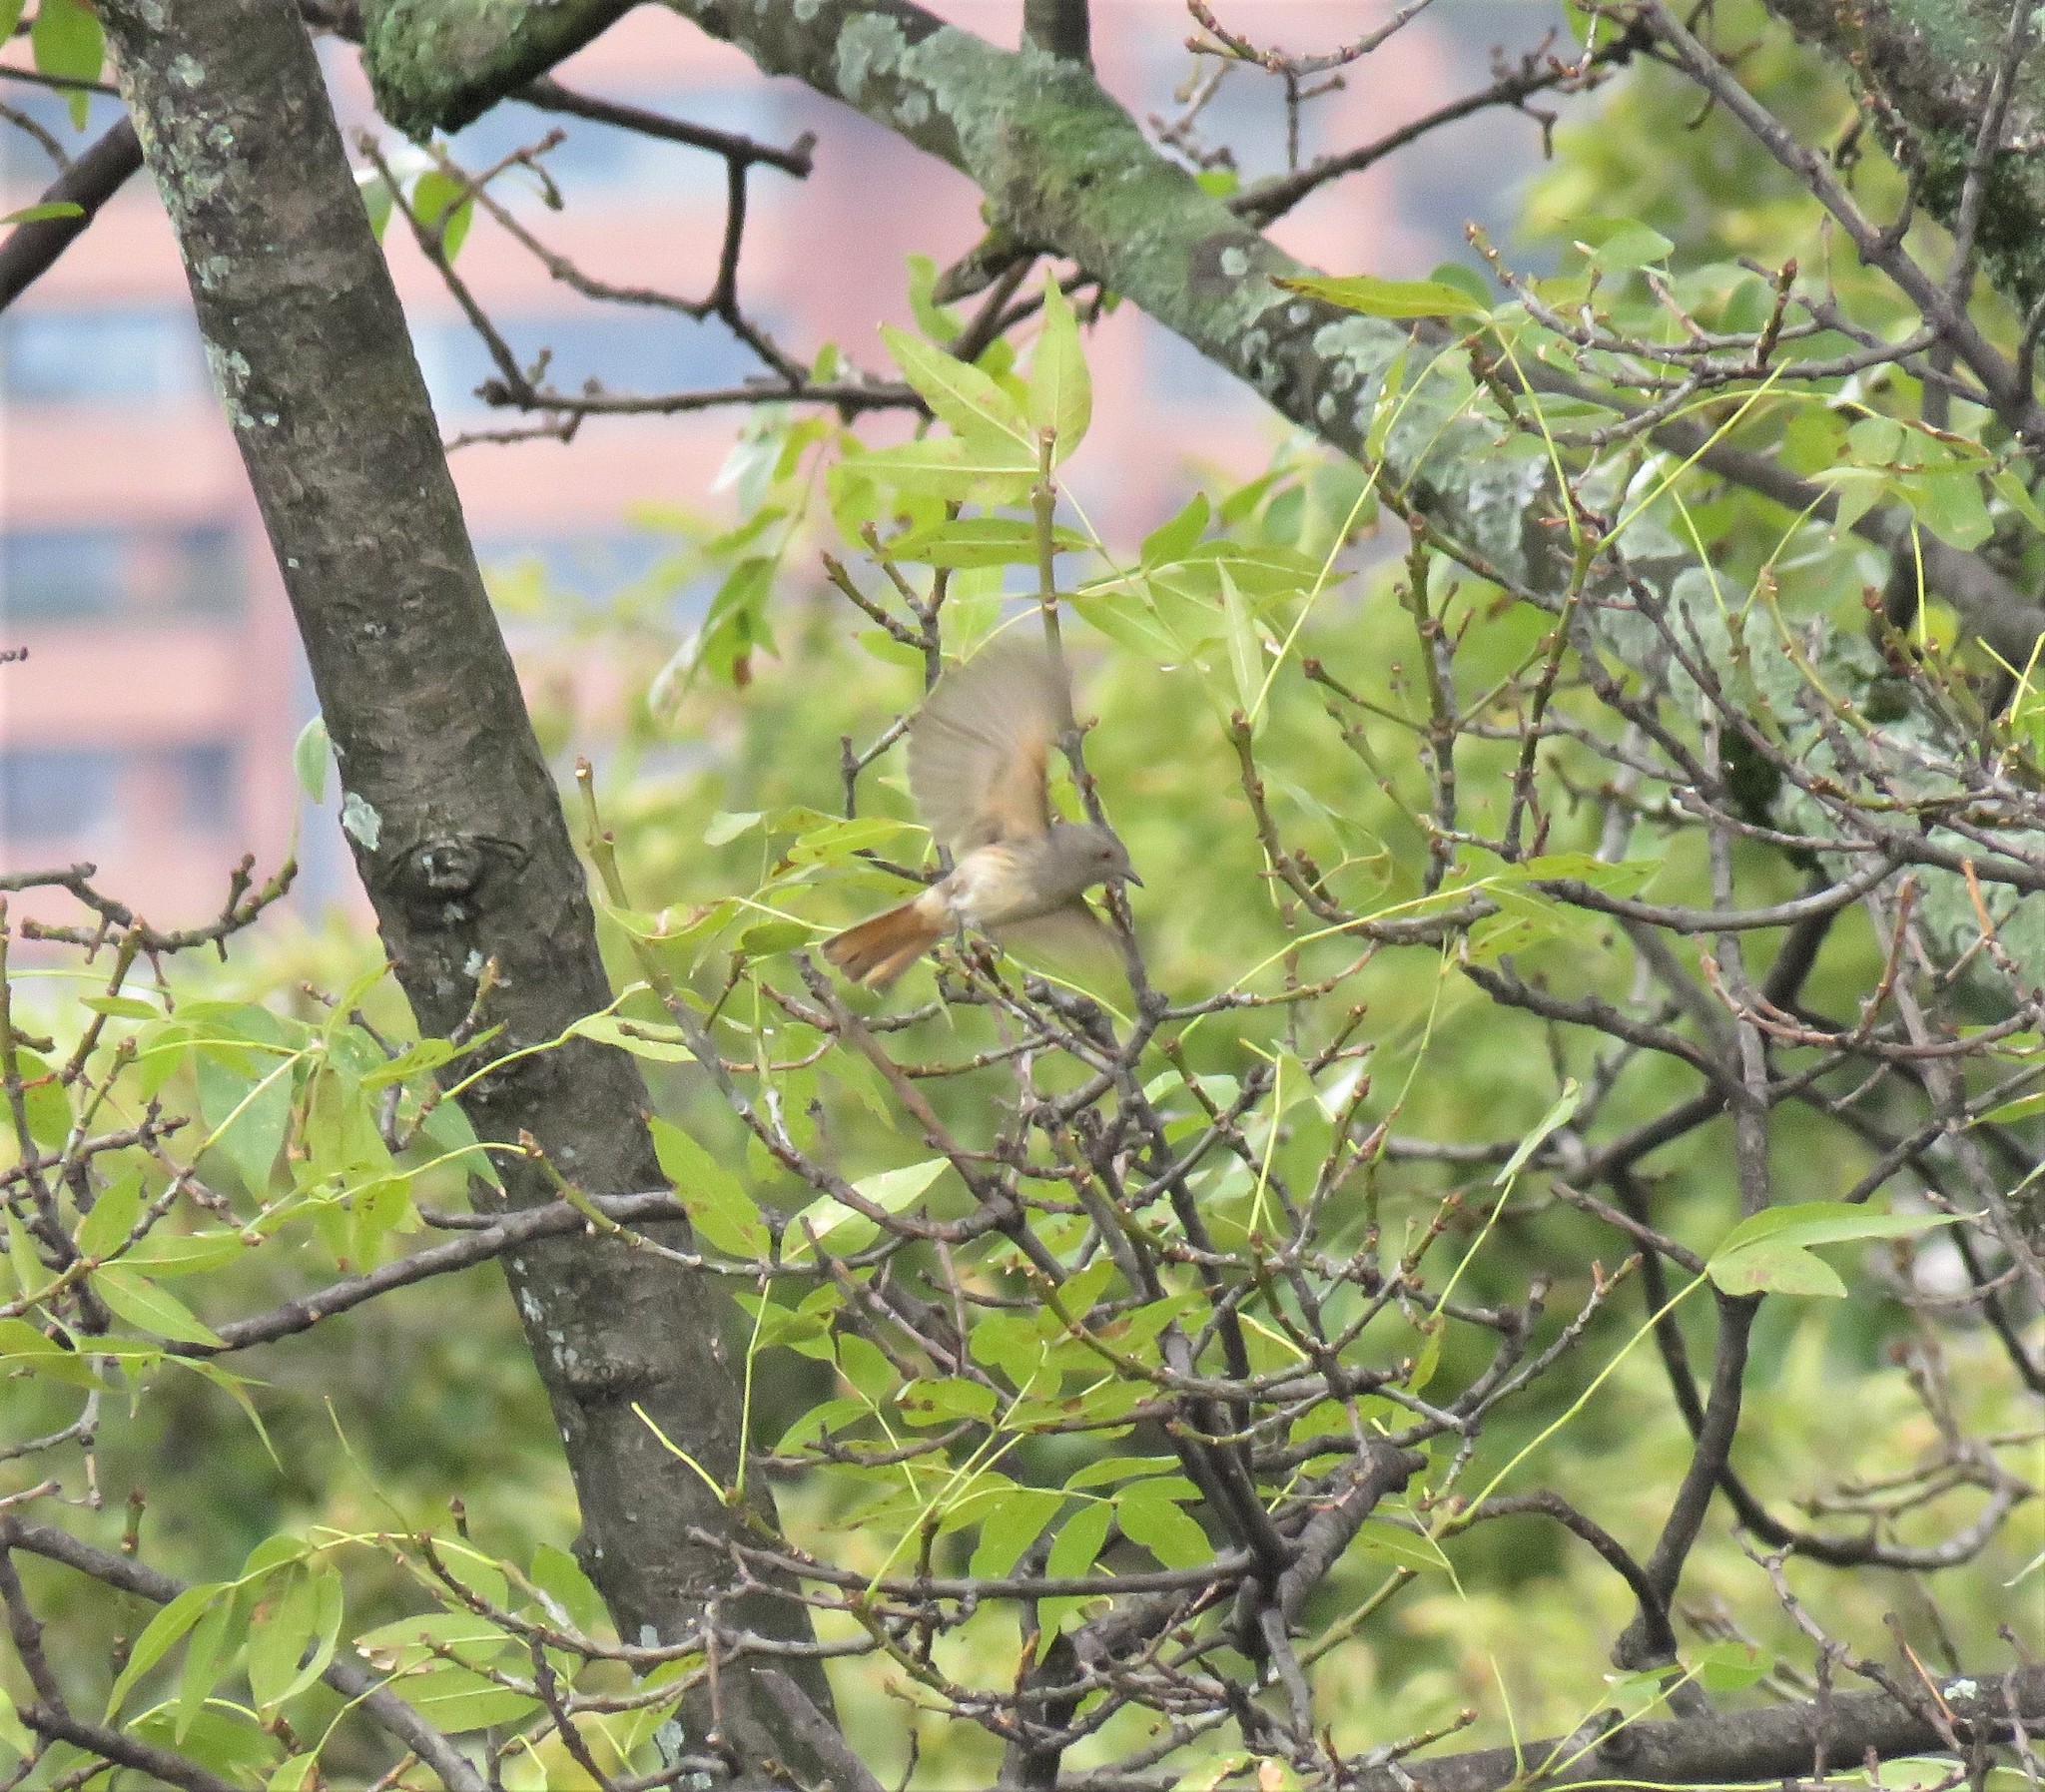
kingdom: Animalia
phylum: Chordata
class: Aves
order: Passeriformes
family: Tyrannidae
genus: Knipolegus
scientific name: Knipolegus poecilurus
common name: Rufous-tailed tyrant
